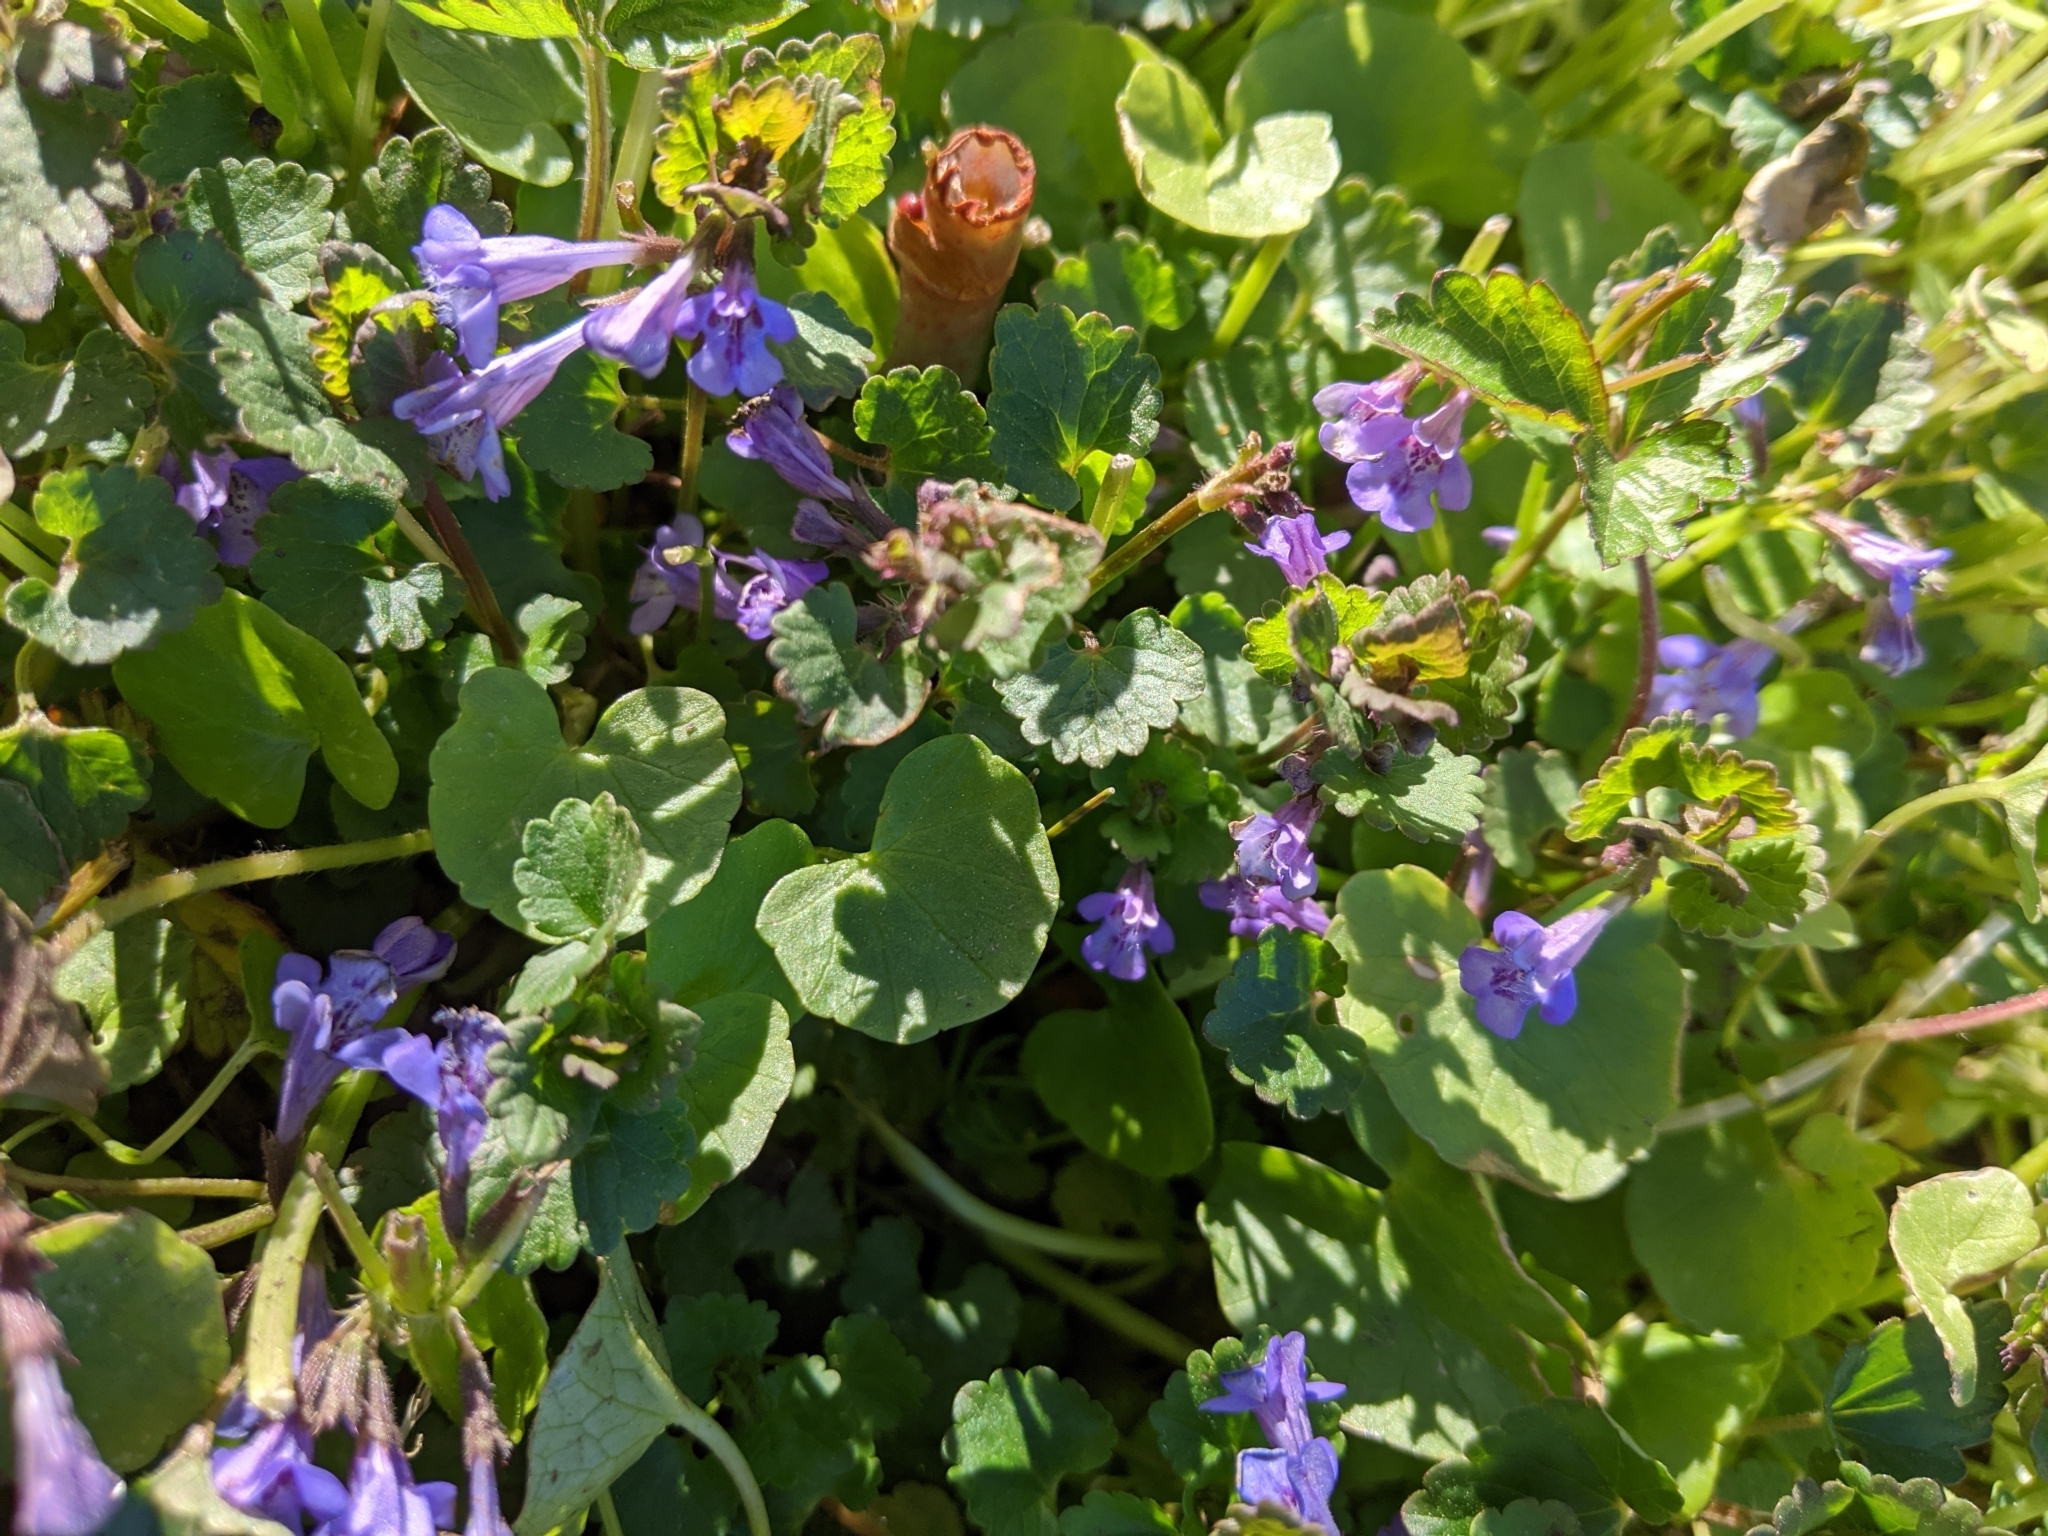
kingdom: Plantae
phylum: Tracheophyta
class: Magnoliopsida
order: Lamiales
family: Lamiaceae
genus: Glechoma
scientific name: Glechoma hederacea
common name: Ground ivy
